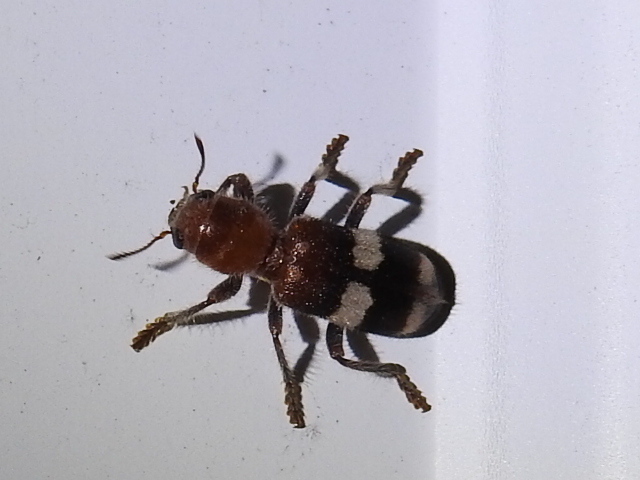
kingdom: Animalia
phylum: Arthropoda
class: Insecta
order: Coleoptera
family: Cleridae
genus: Enoclerus
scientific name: Enoclerus quadrisignatus
